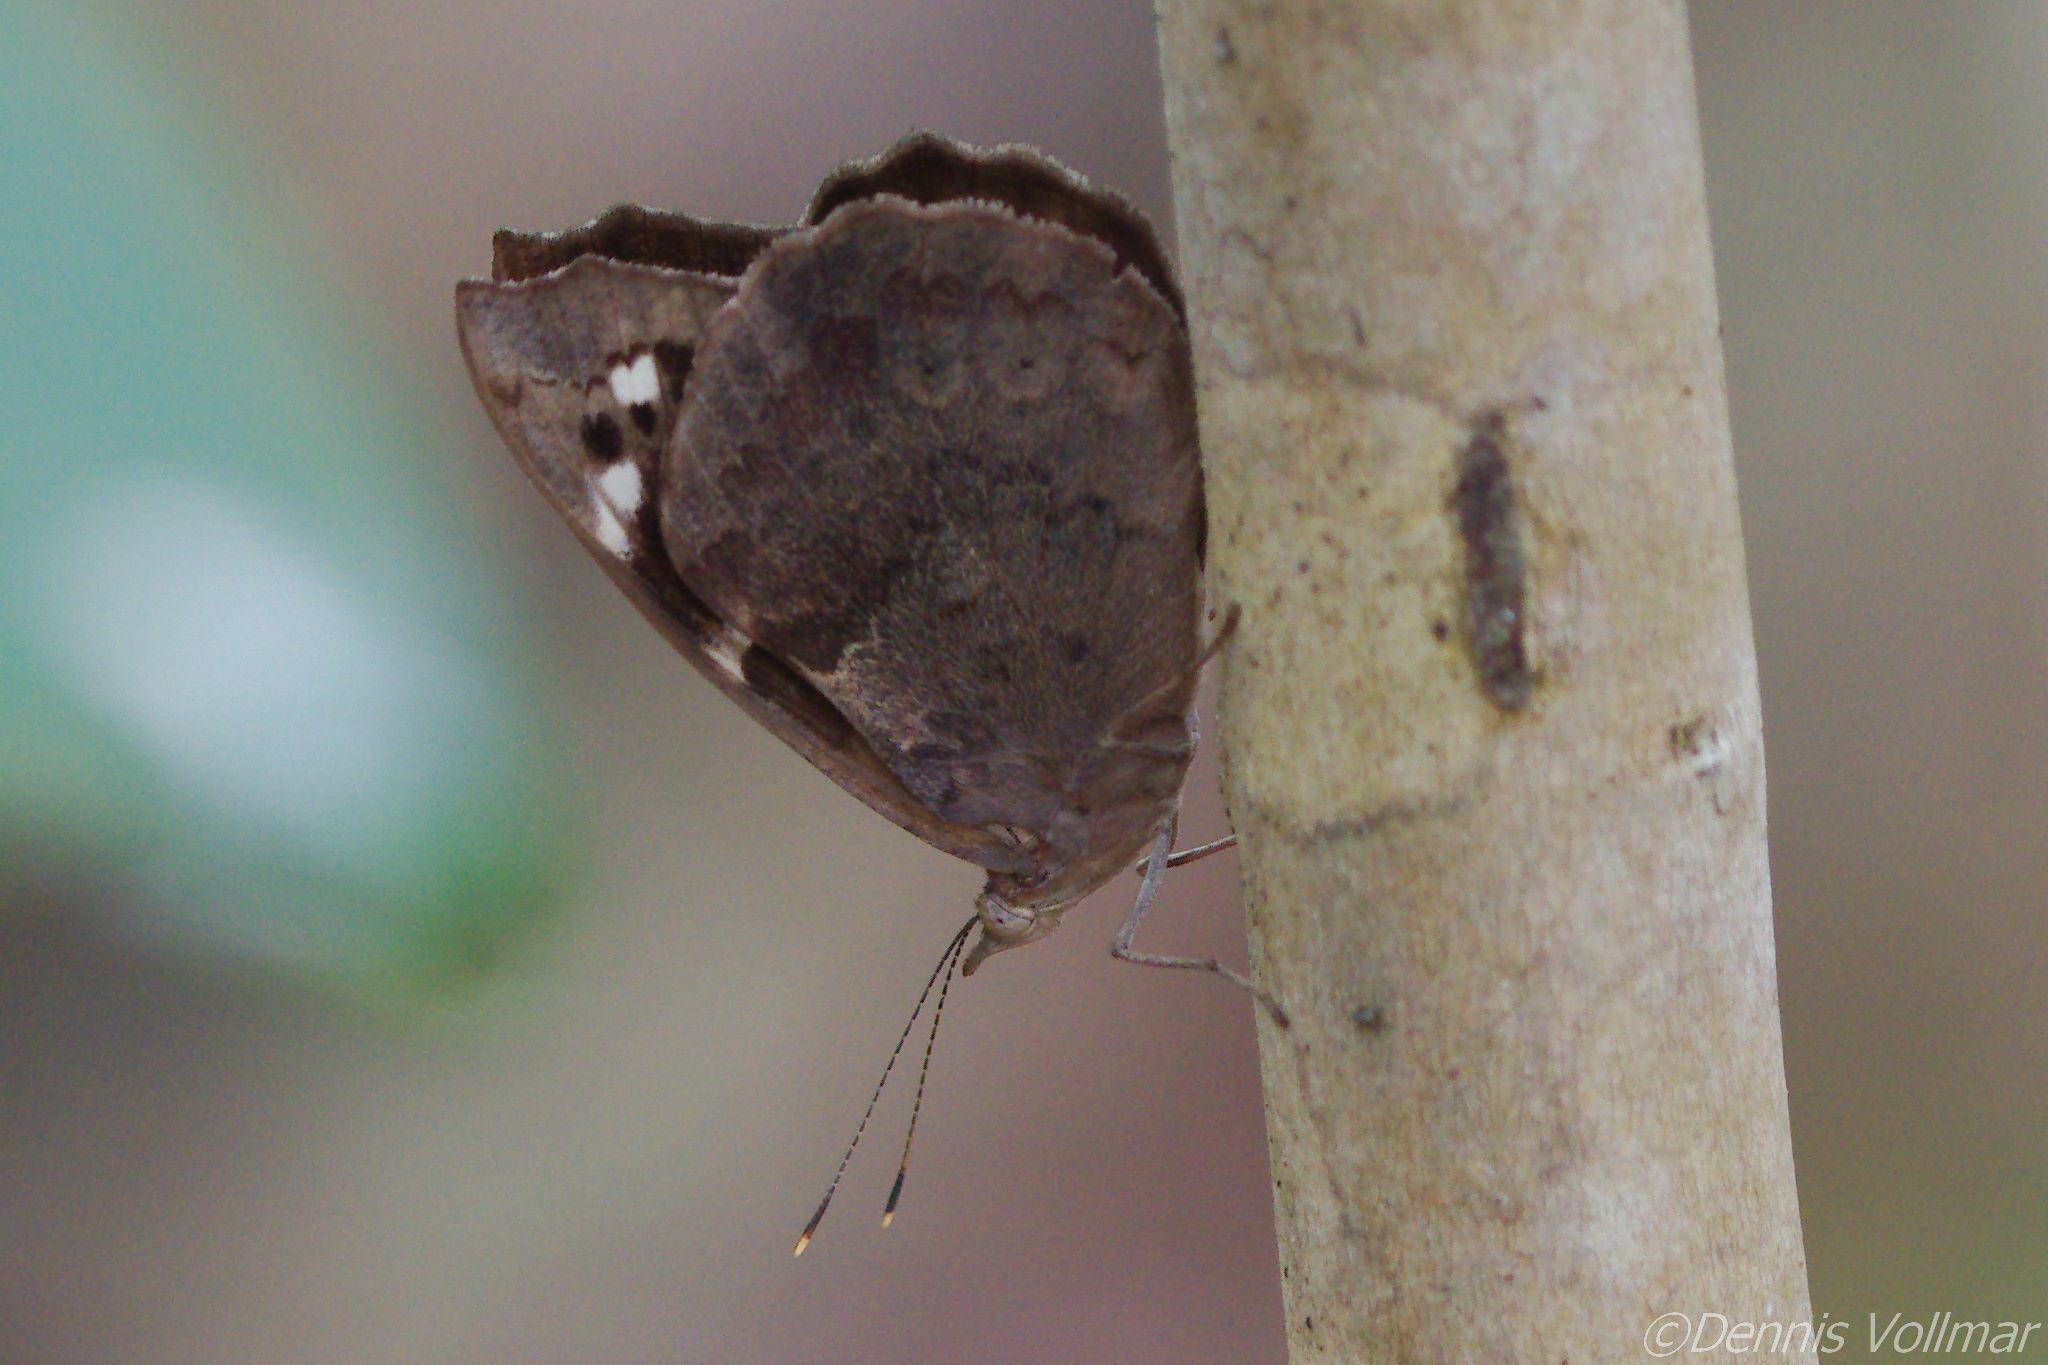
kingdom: Animalia
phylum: Arthropoda
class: Insecta
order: Lepidoptera
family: Nymphalidae
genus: Eunica
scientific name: Eunica tatila
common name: Florida purplewing
